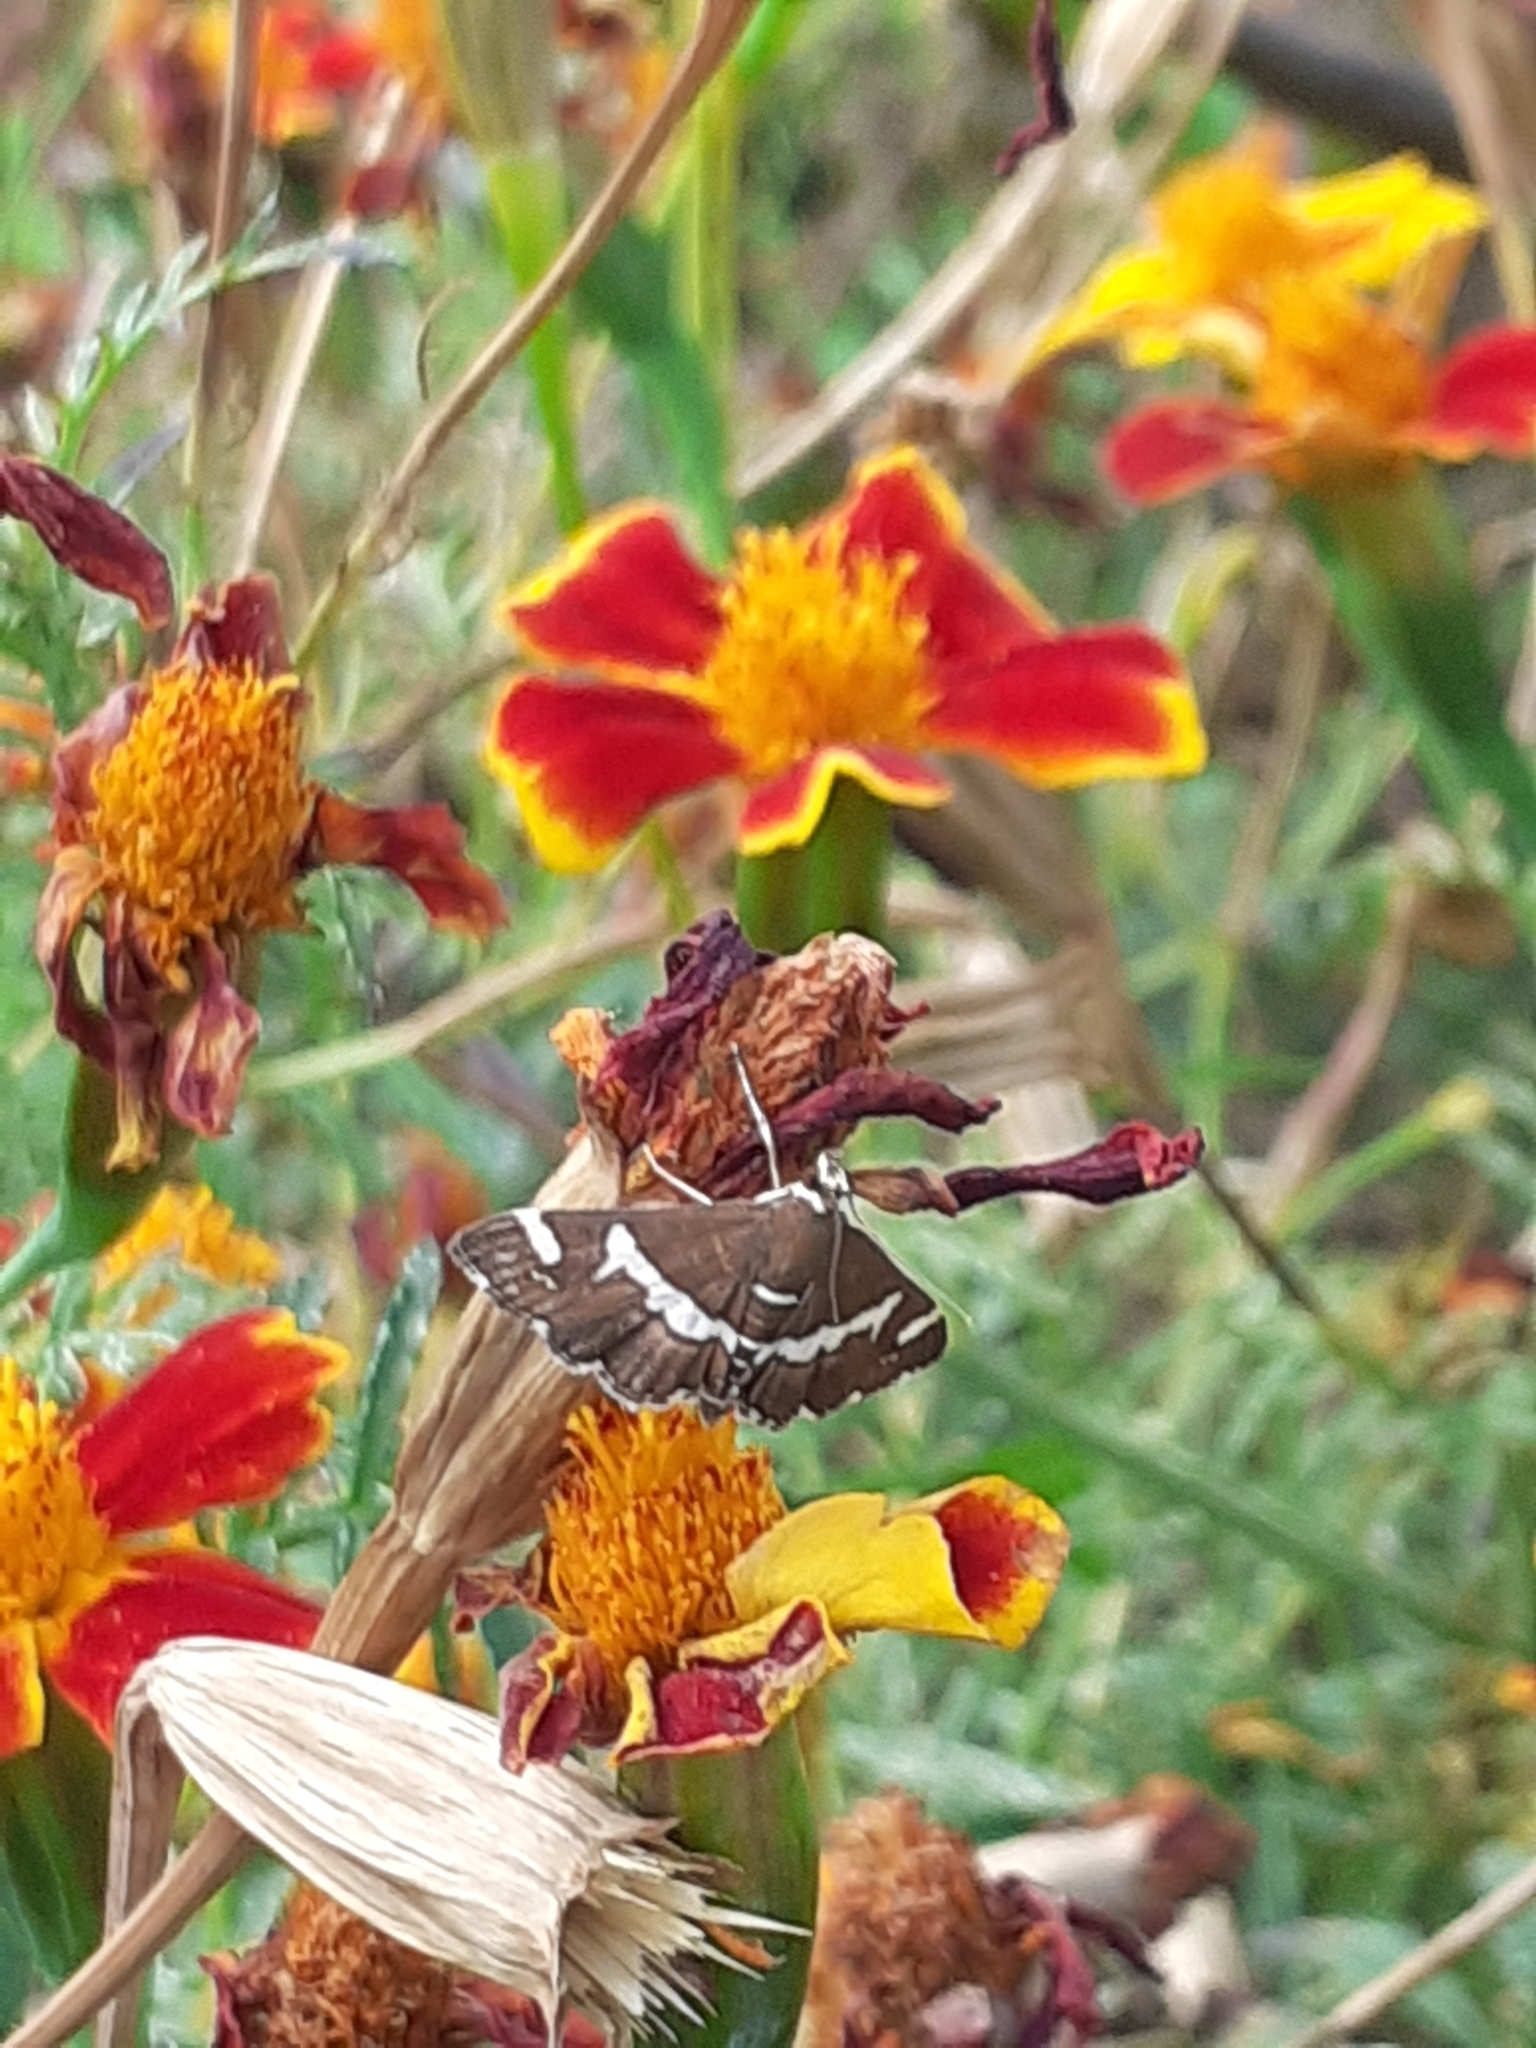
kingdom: Animalia
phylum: Arthropoda
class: Insecta
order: Lepidoptera
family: Crambidae
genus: Spoladea
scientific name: Spoladea recurvalis
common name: Beet webworm moth
